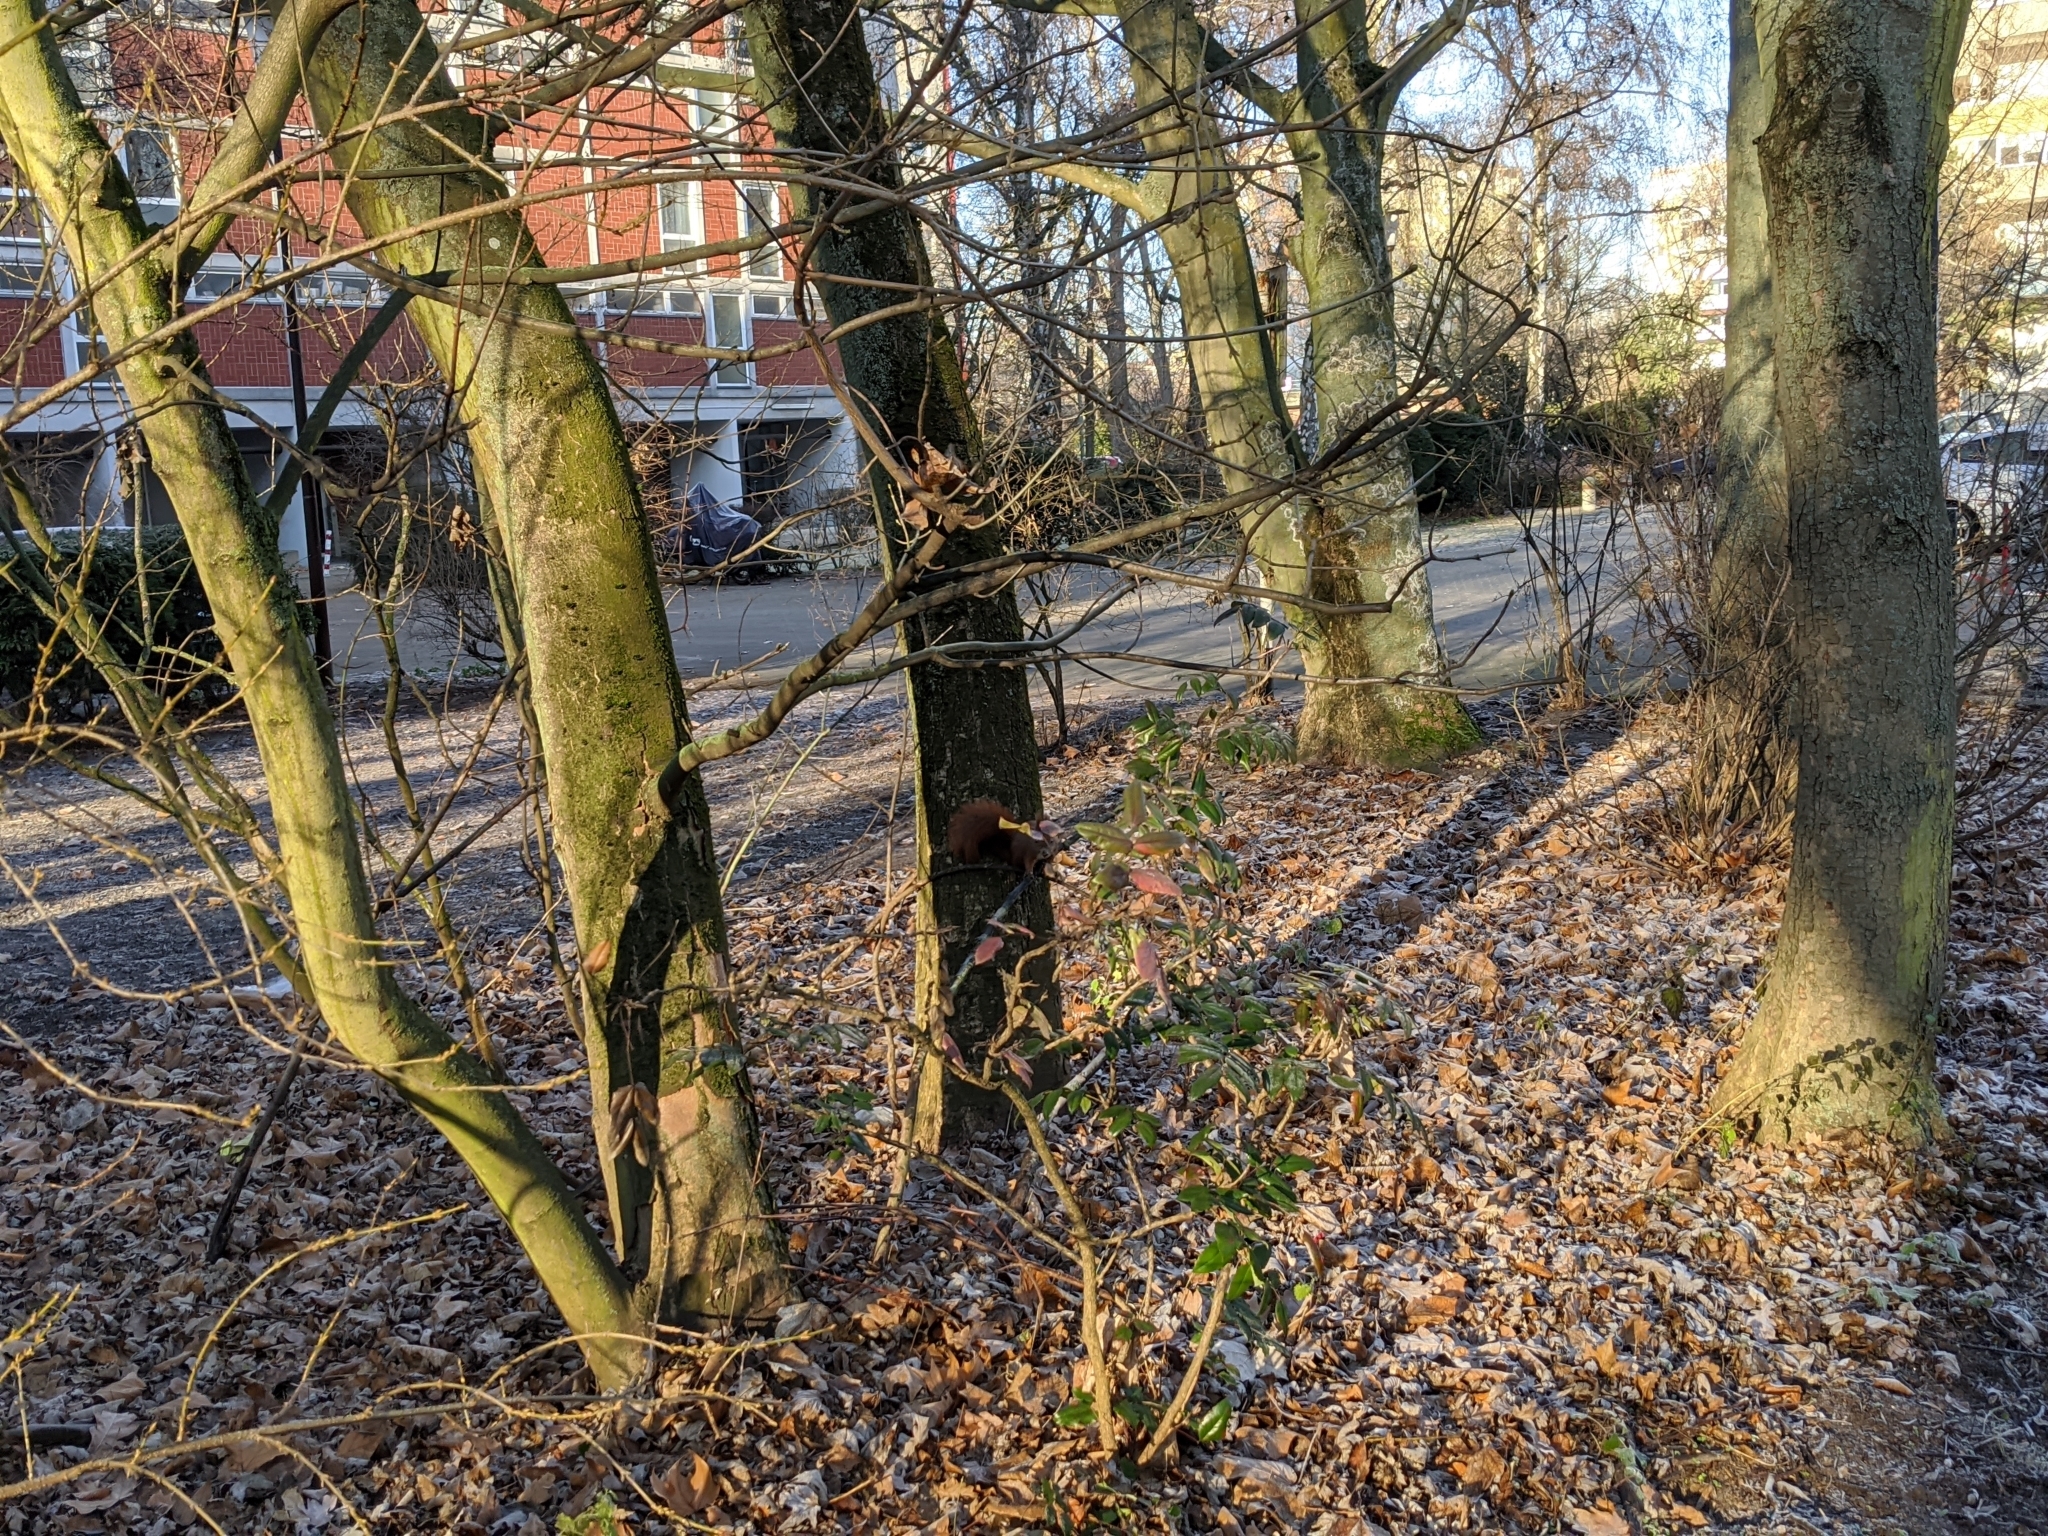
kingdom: Animalia
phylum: Chordata
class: Mammalia
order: Rodentia
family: Sciuridae
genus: Sciurus
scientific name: Sciurus vulgaris
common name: Eurasian red squirrel
